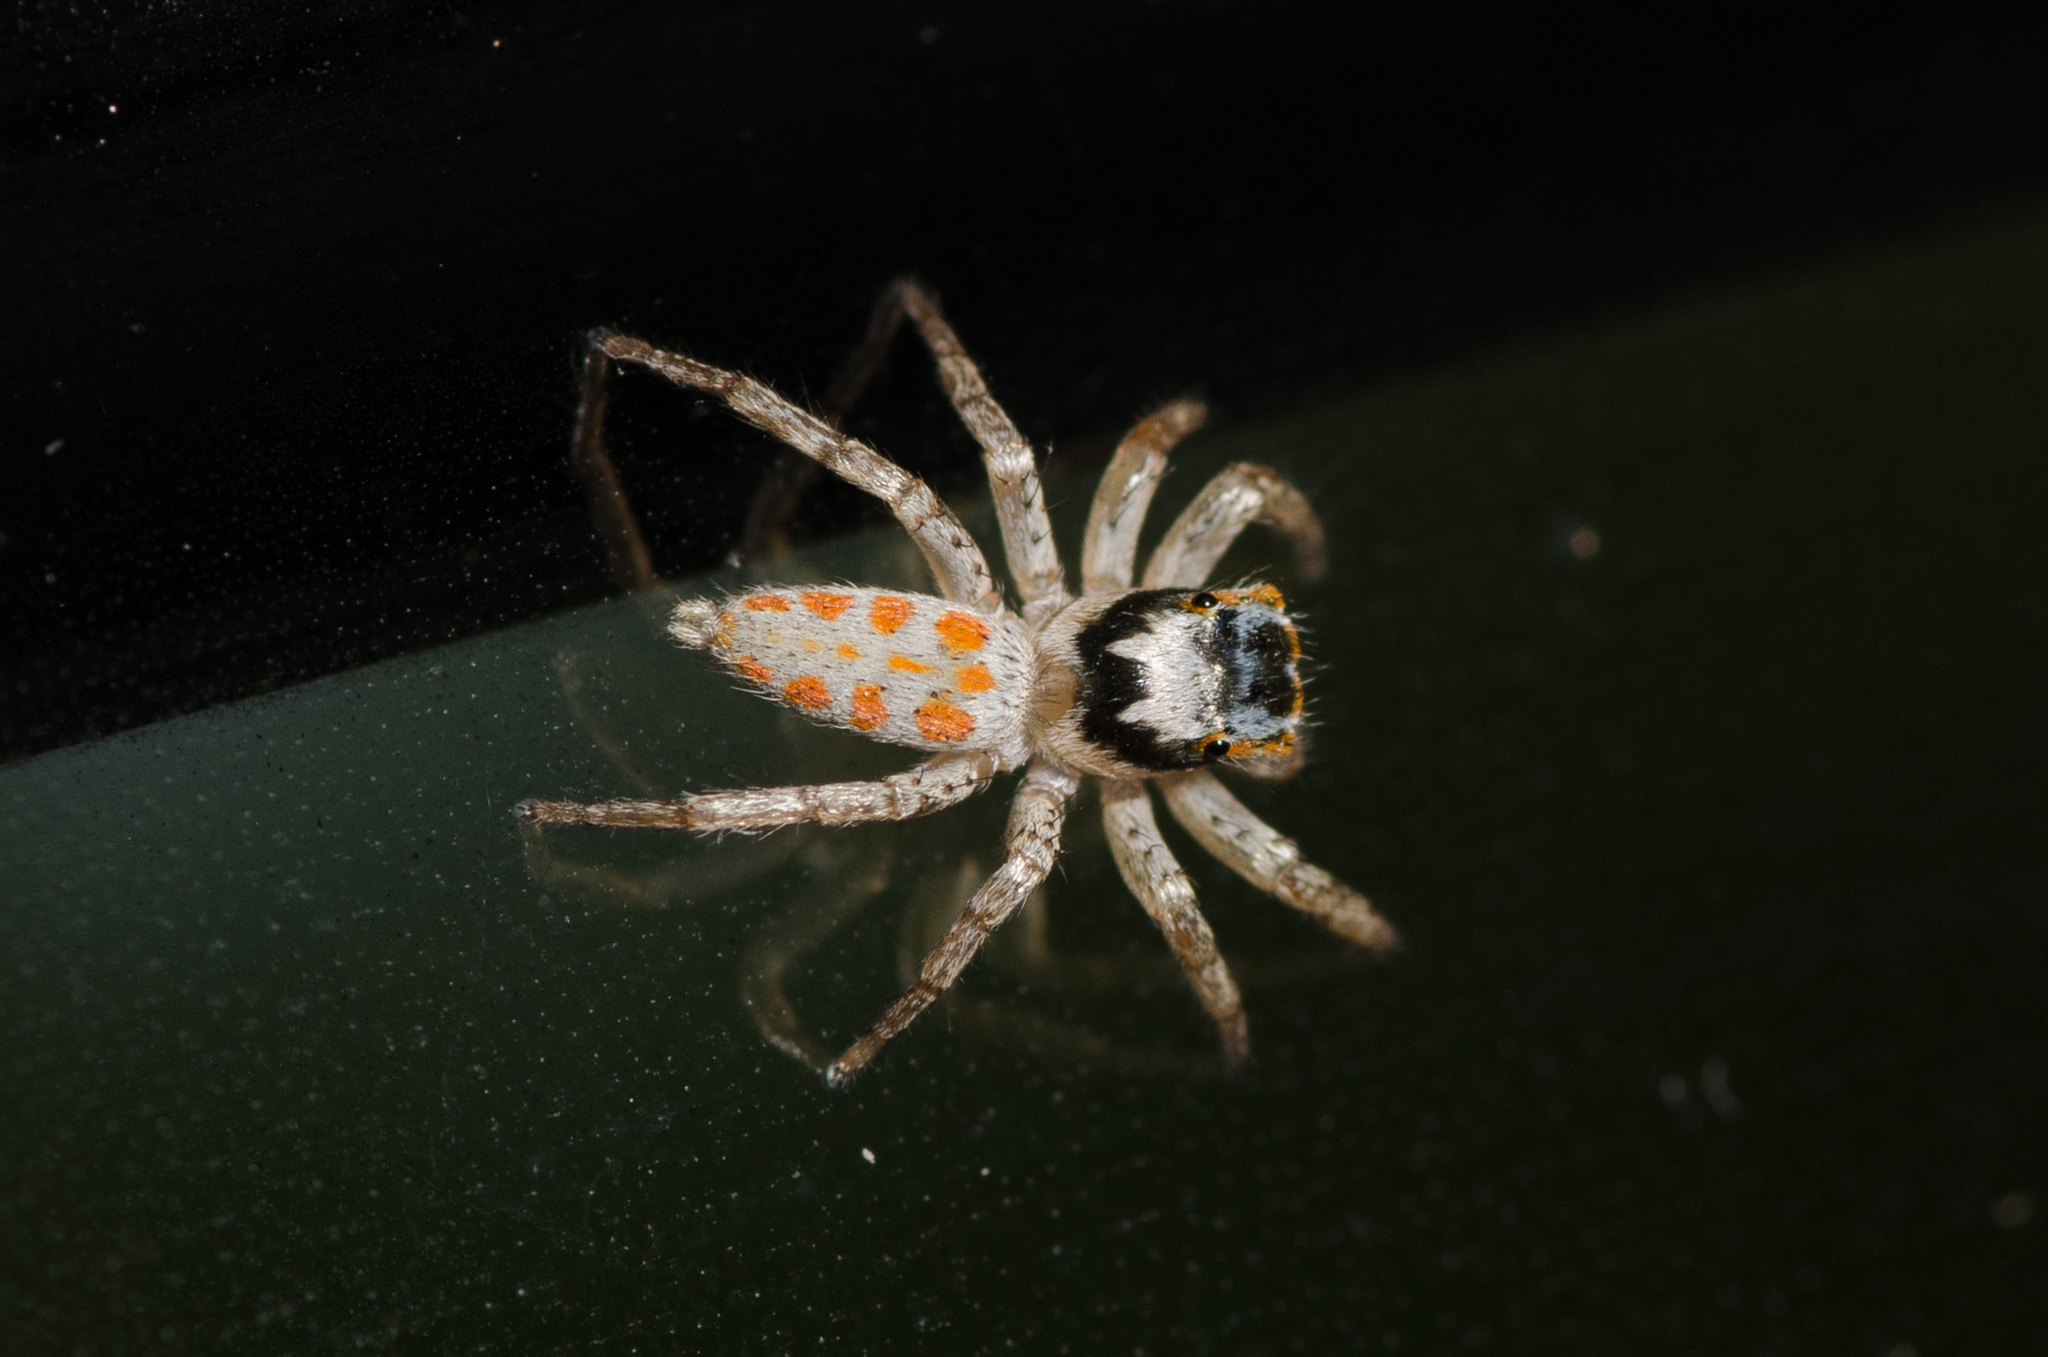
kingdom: Animalia
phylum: Arthropoda
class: Arachnida
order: Araneae
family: Salticidae
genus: Paramaevia
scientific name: Paramaevia poultoni
